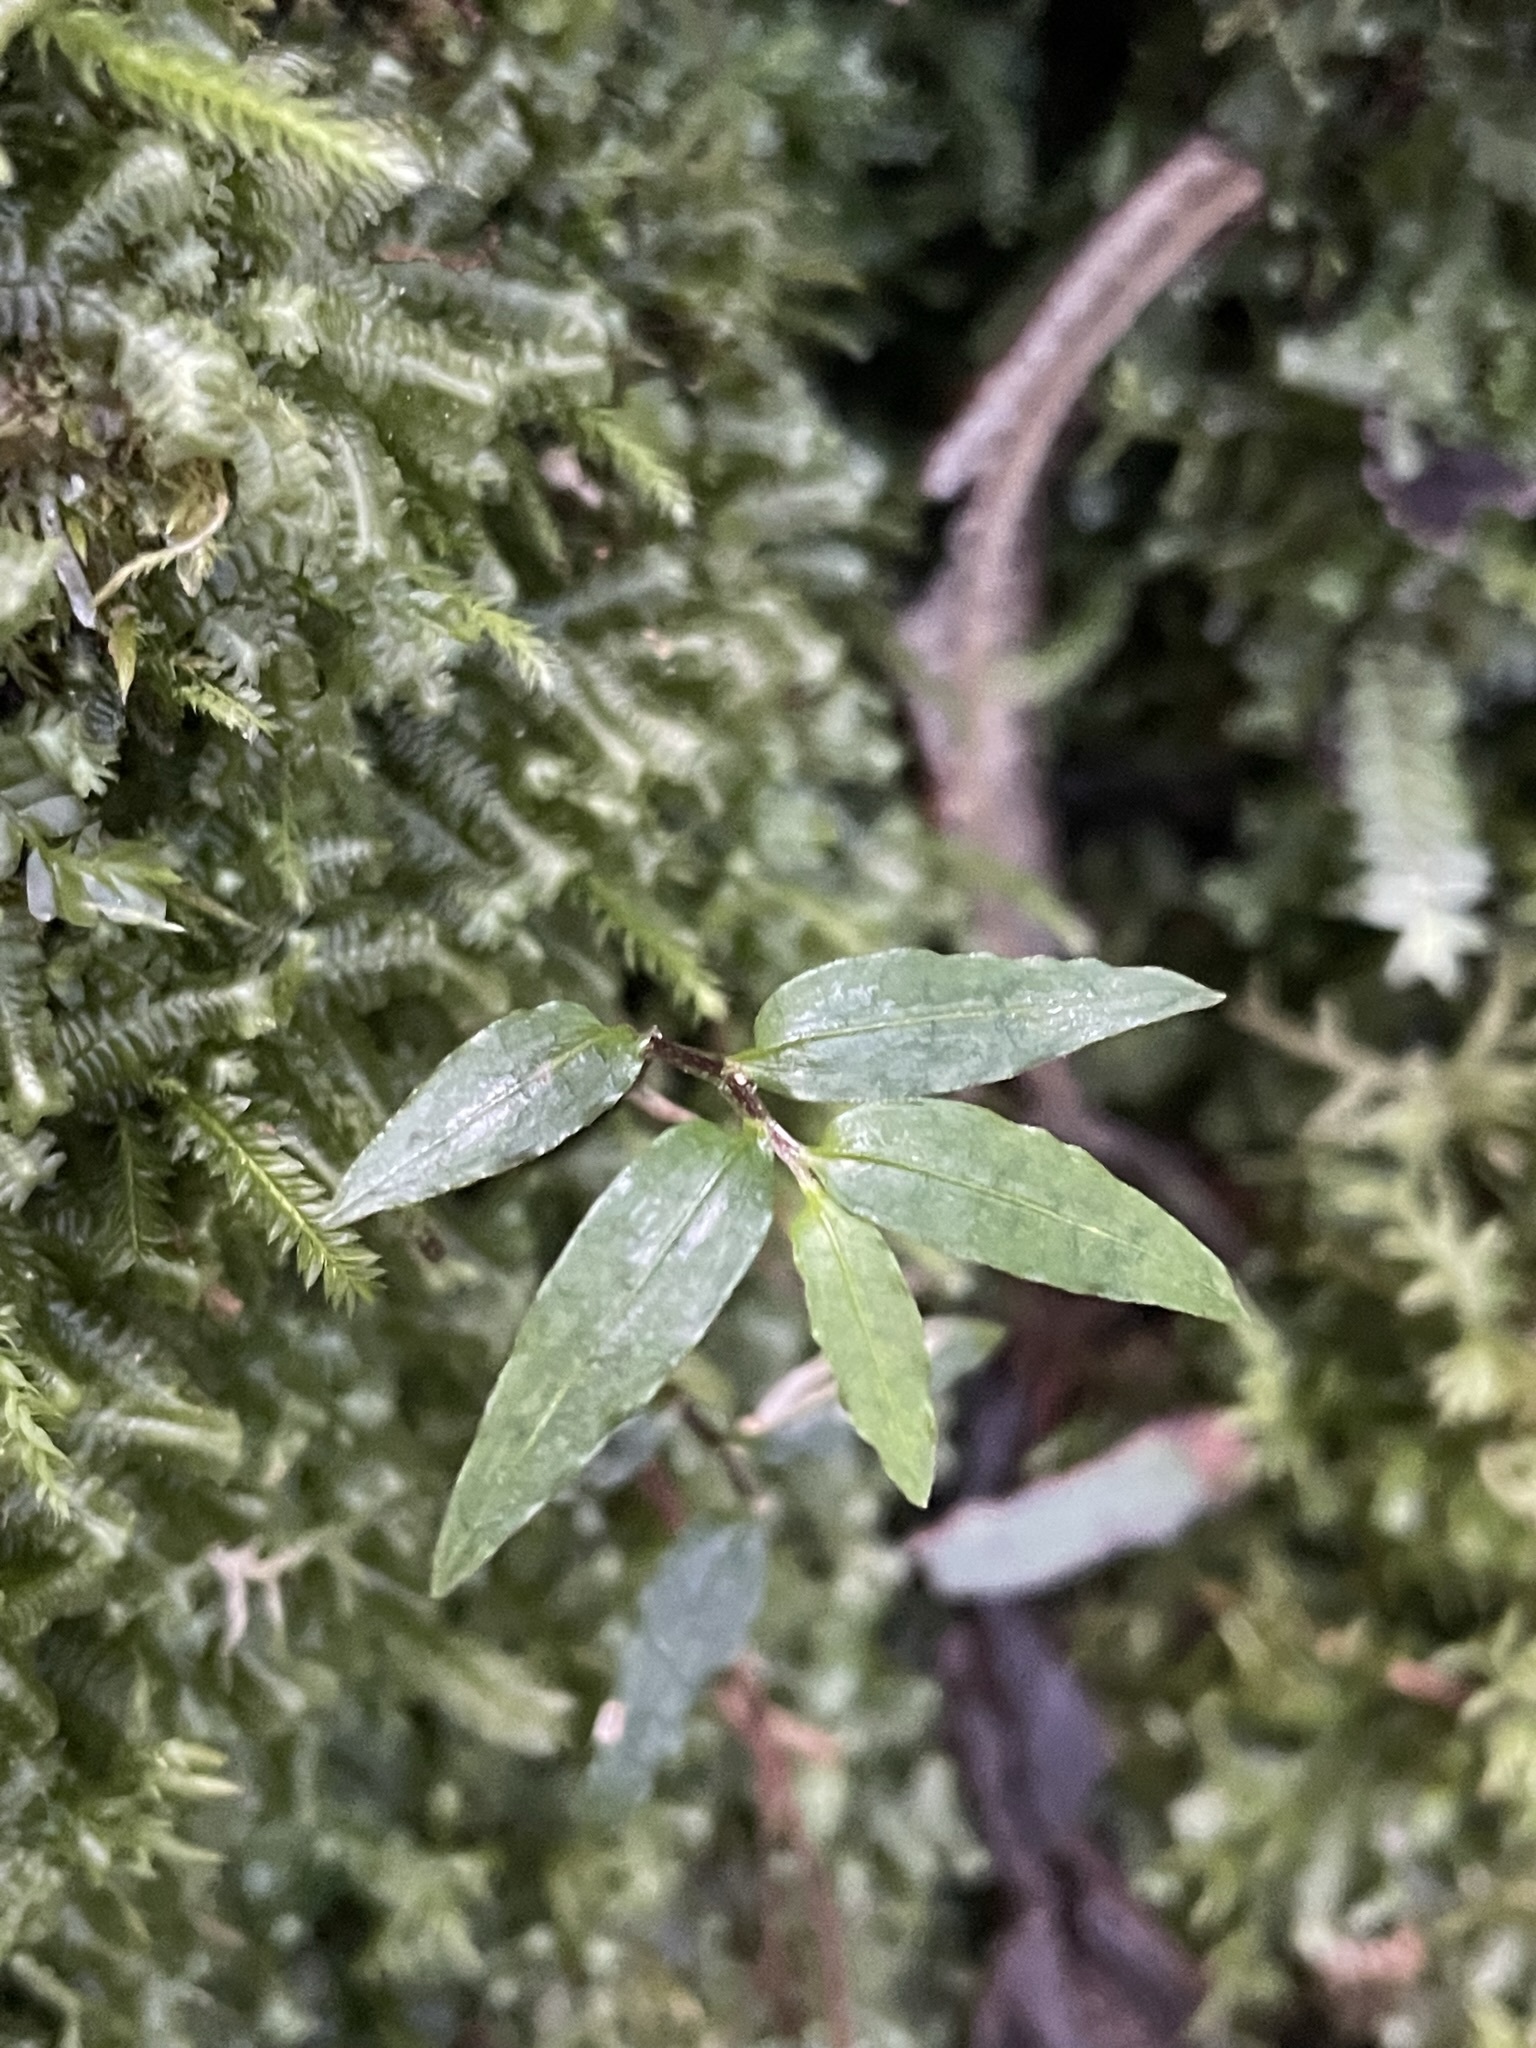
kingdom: Plantae
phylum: Tracheophyta
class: Liliopsida
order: Liliales
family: Alstroemeriaceae
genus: Drymophila
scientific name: Drymophila cyanocarpa
